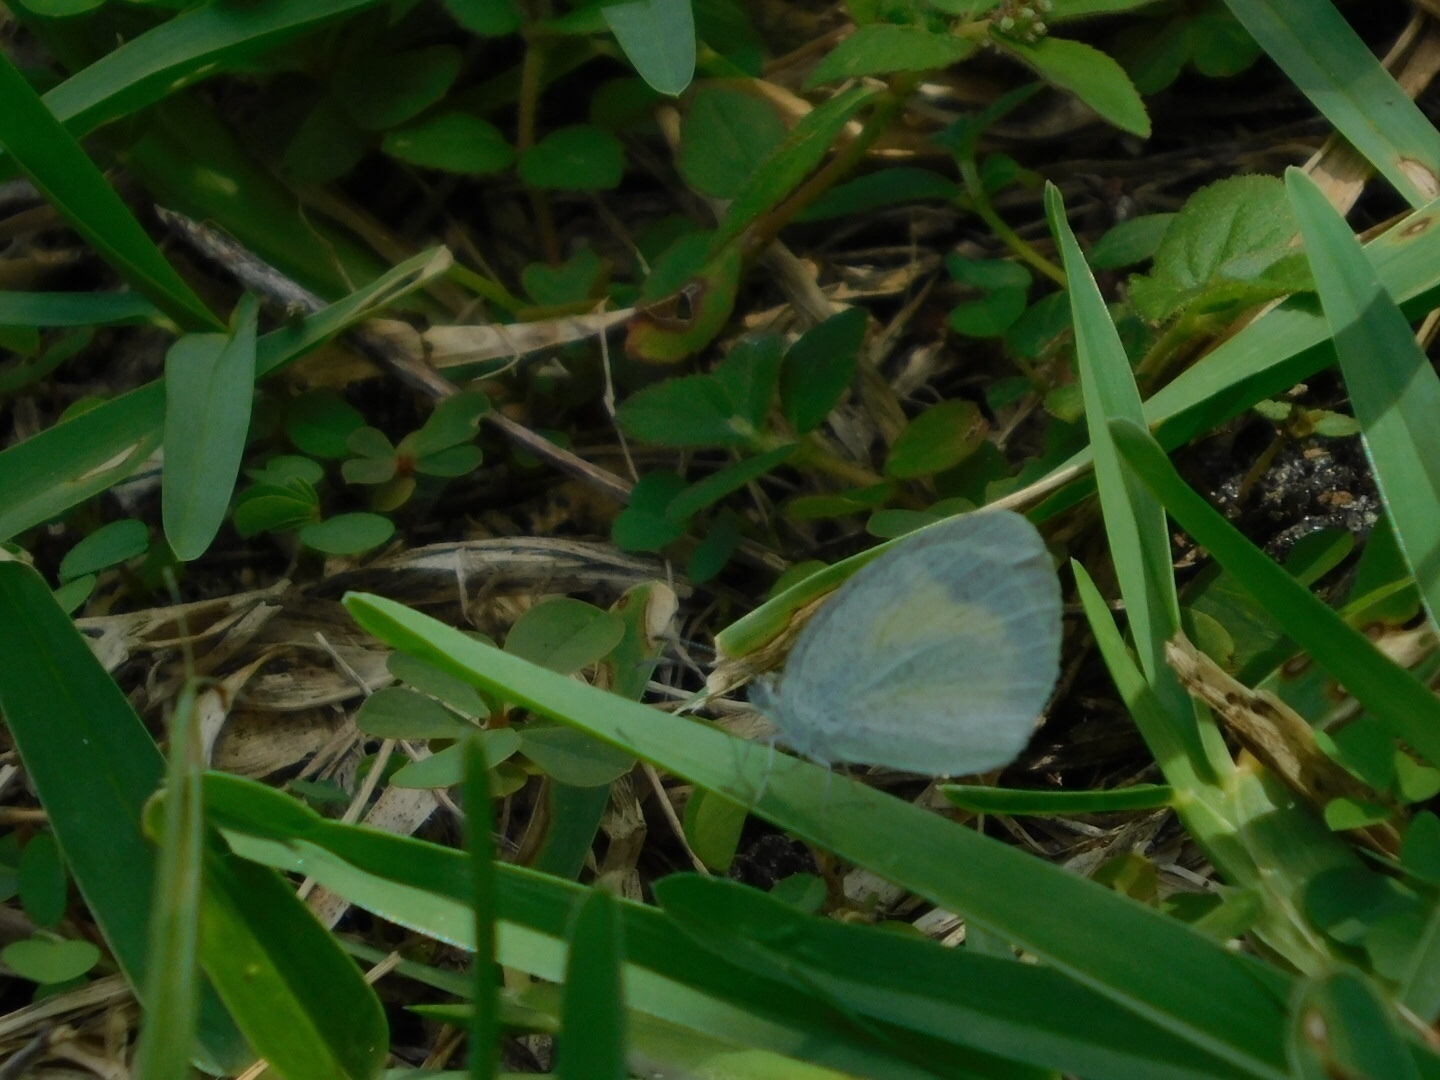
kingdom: Animalia
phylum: Arthropoda
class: Insecta
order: Lepidoptera
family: Pieridae
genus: Eurema
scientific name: Eurema daira
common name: Barred sulphur
